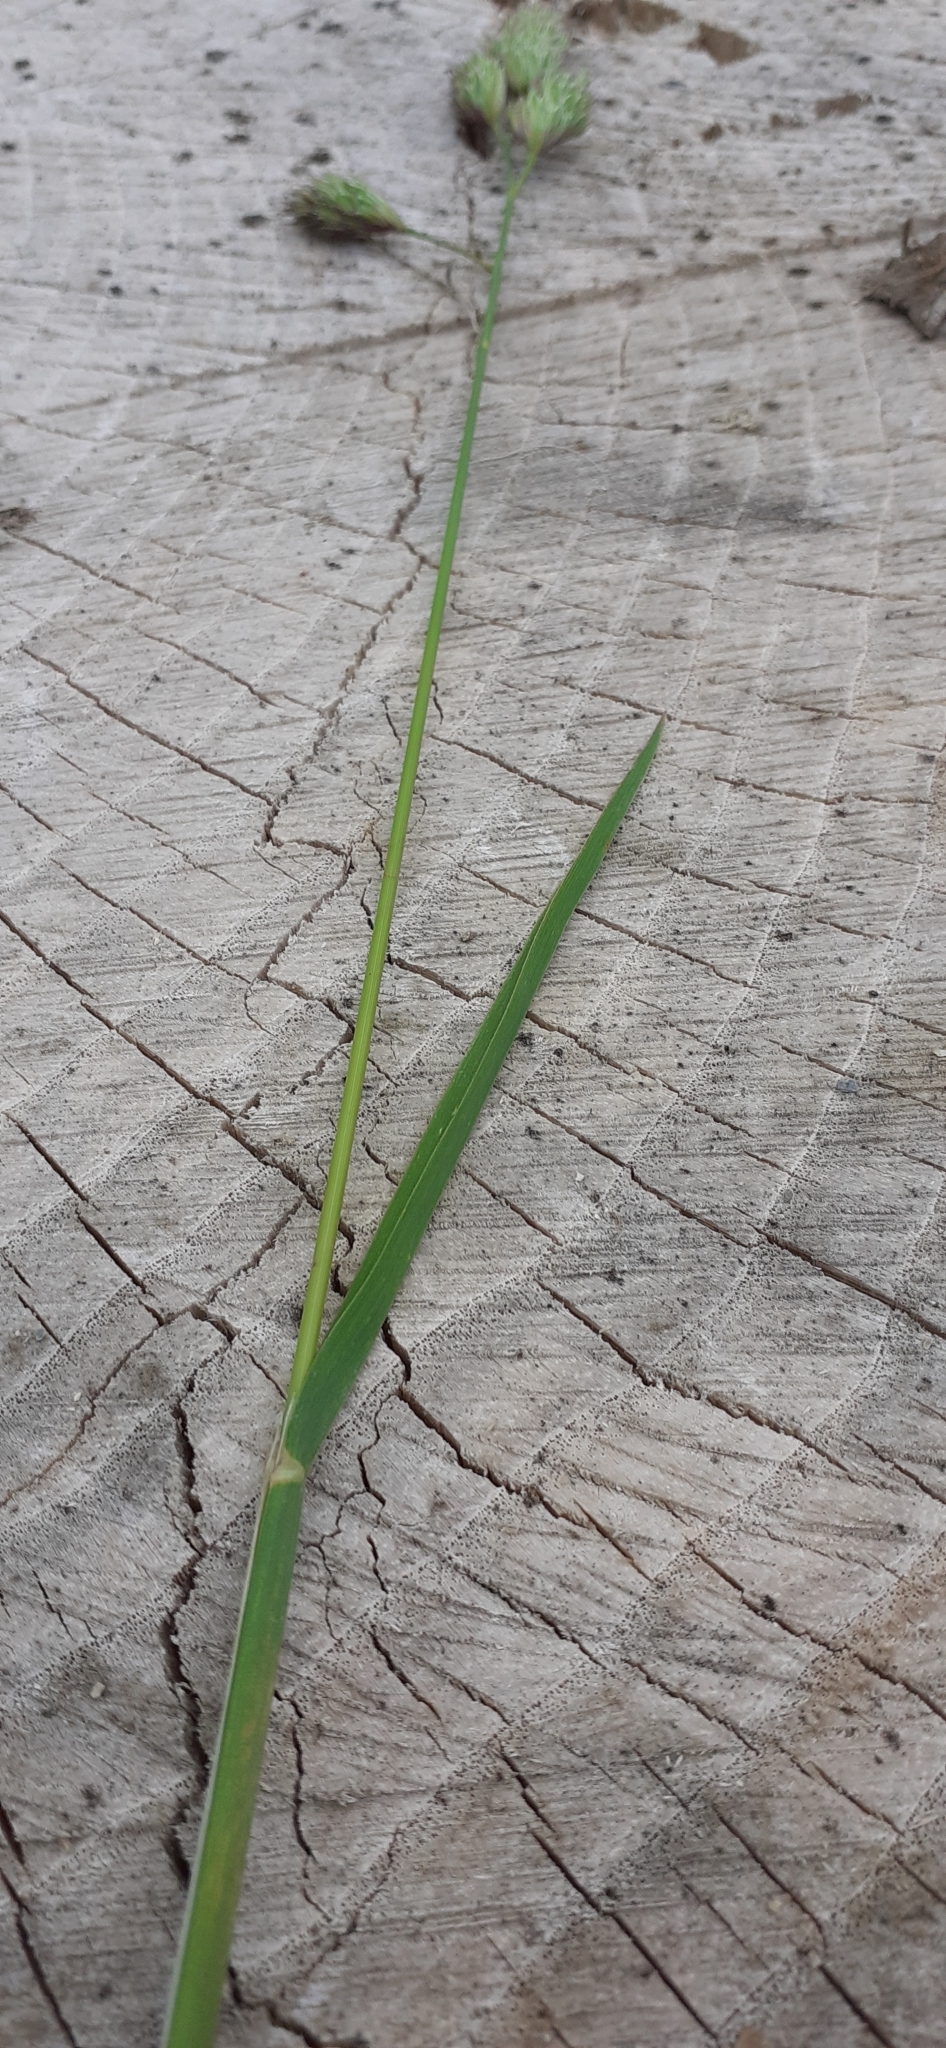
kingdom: Plantae
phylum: Tracheophyta
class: Liliopsida
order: Poales
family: Poaceae
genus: Dactylis
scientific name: Dactylis glomerata
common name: Orchardgrass
